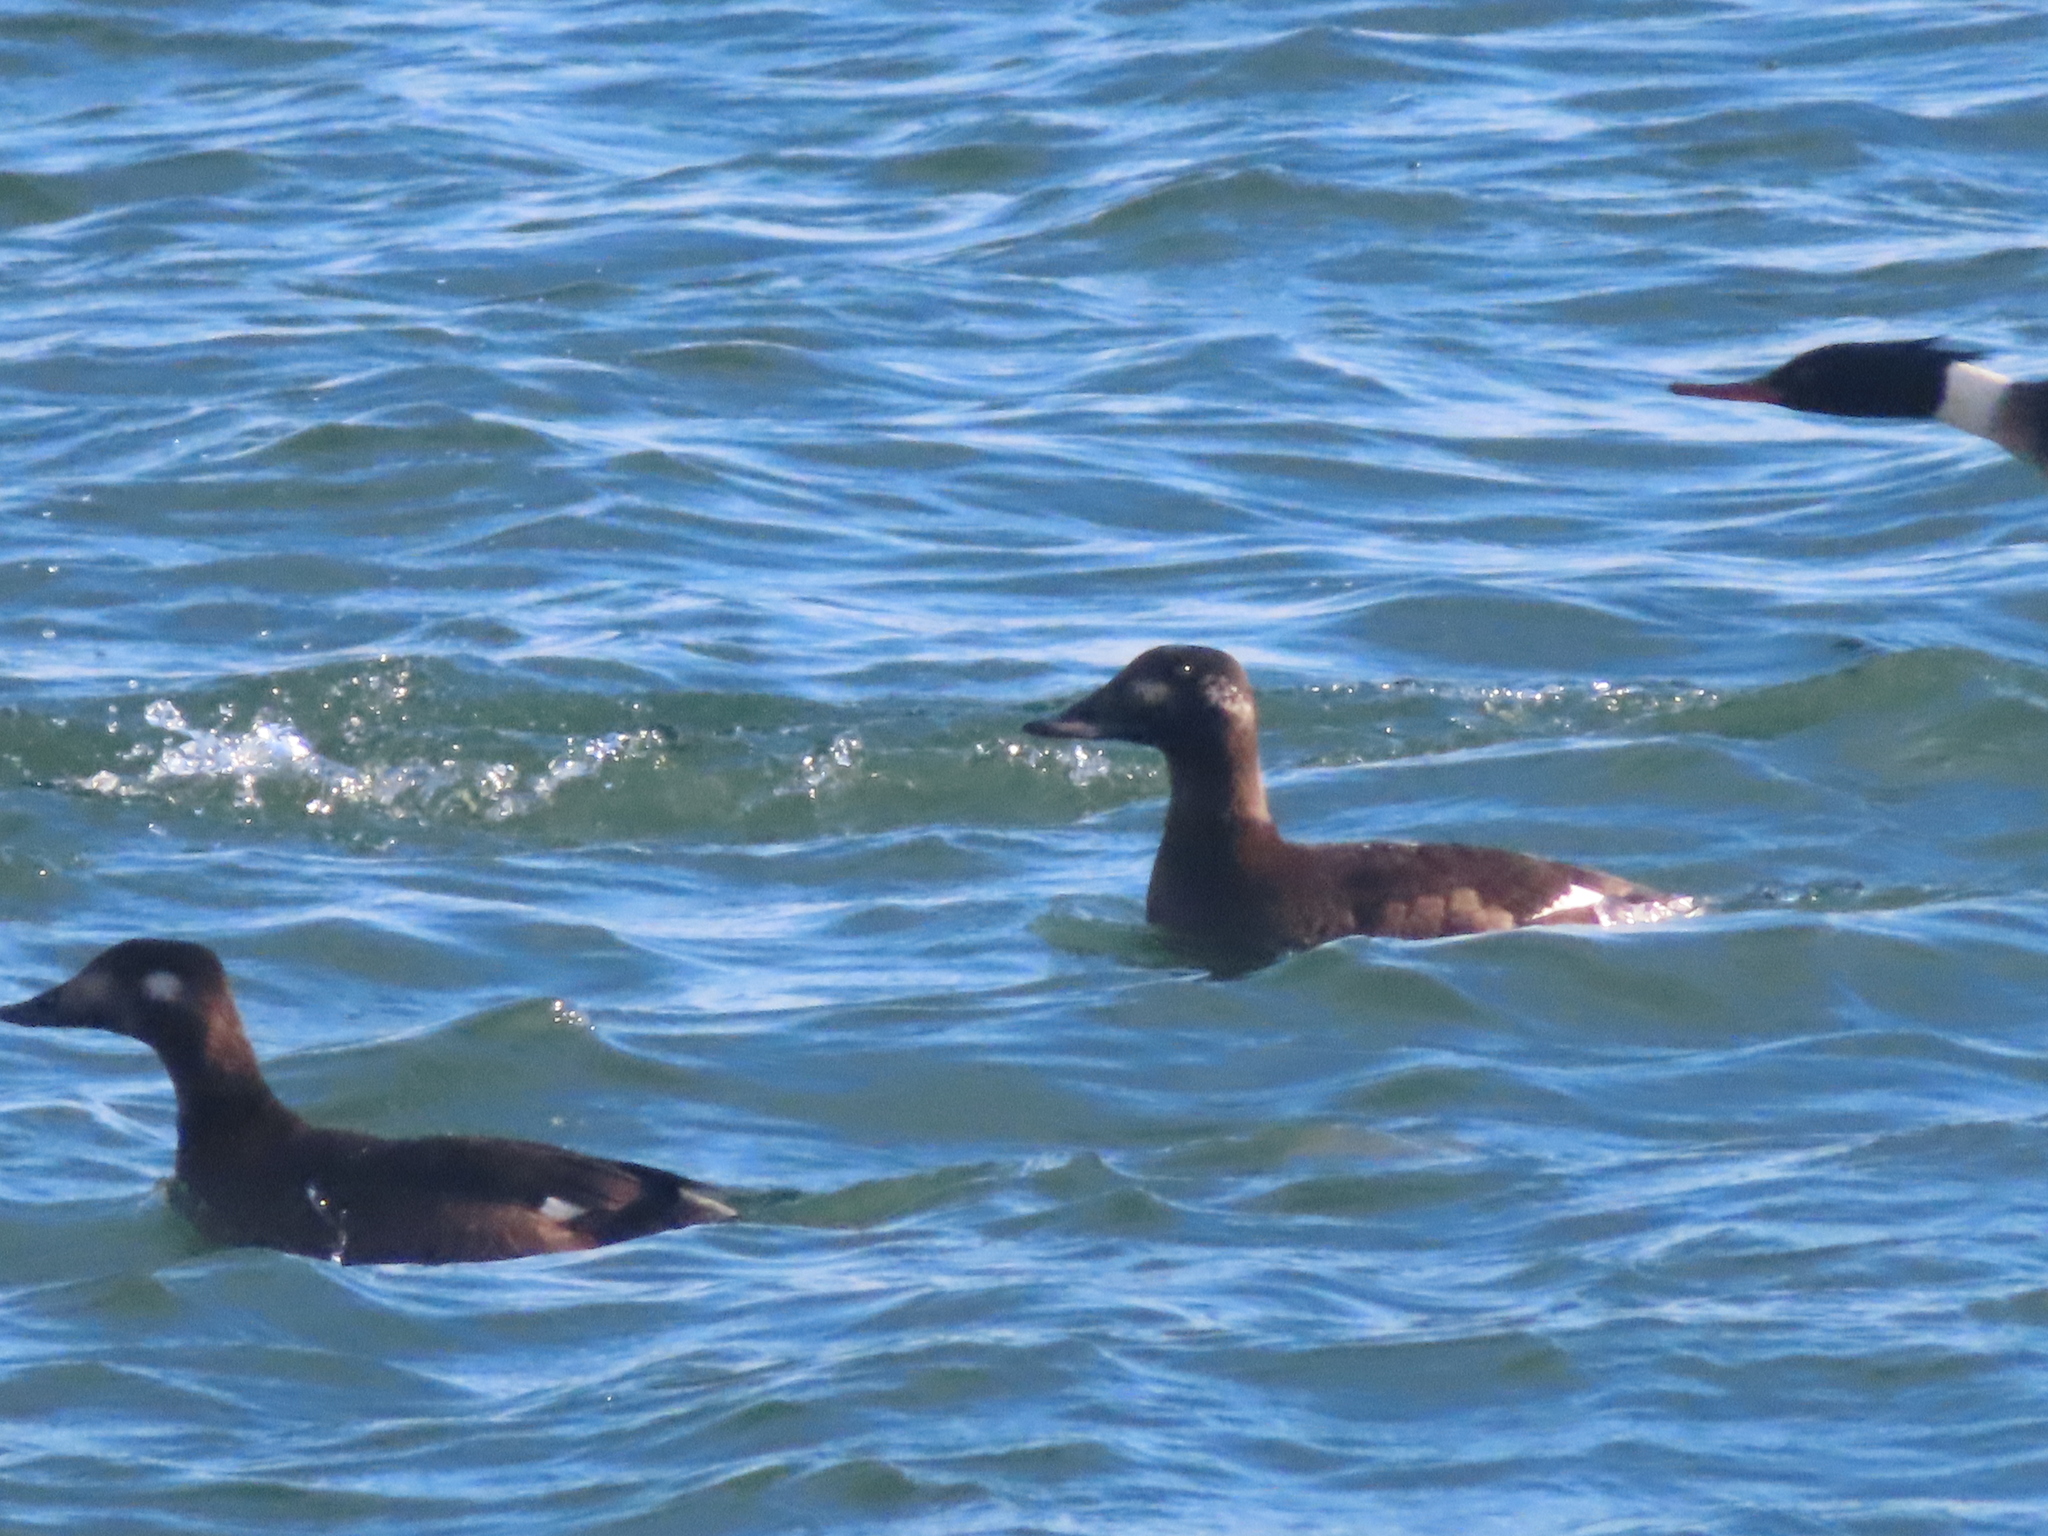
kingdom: Animalia
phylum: Chordata
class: Aves
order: Anseriformes
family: Anatidae
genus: Melanitta
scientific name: Melanitta deglandi
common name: White-winged scoter
